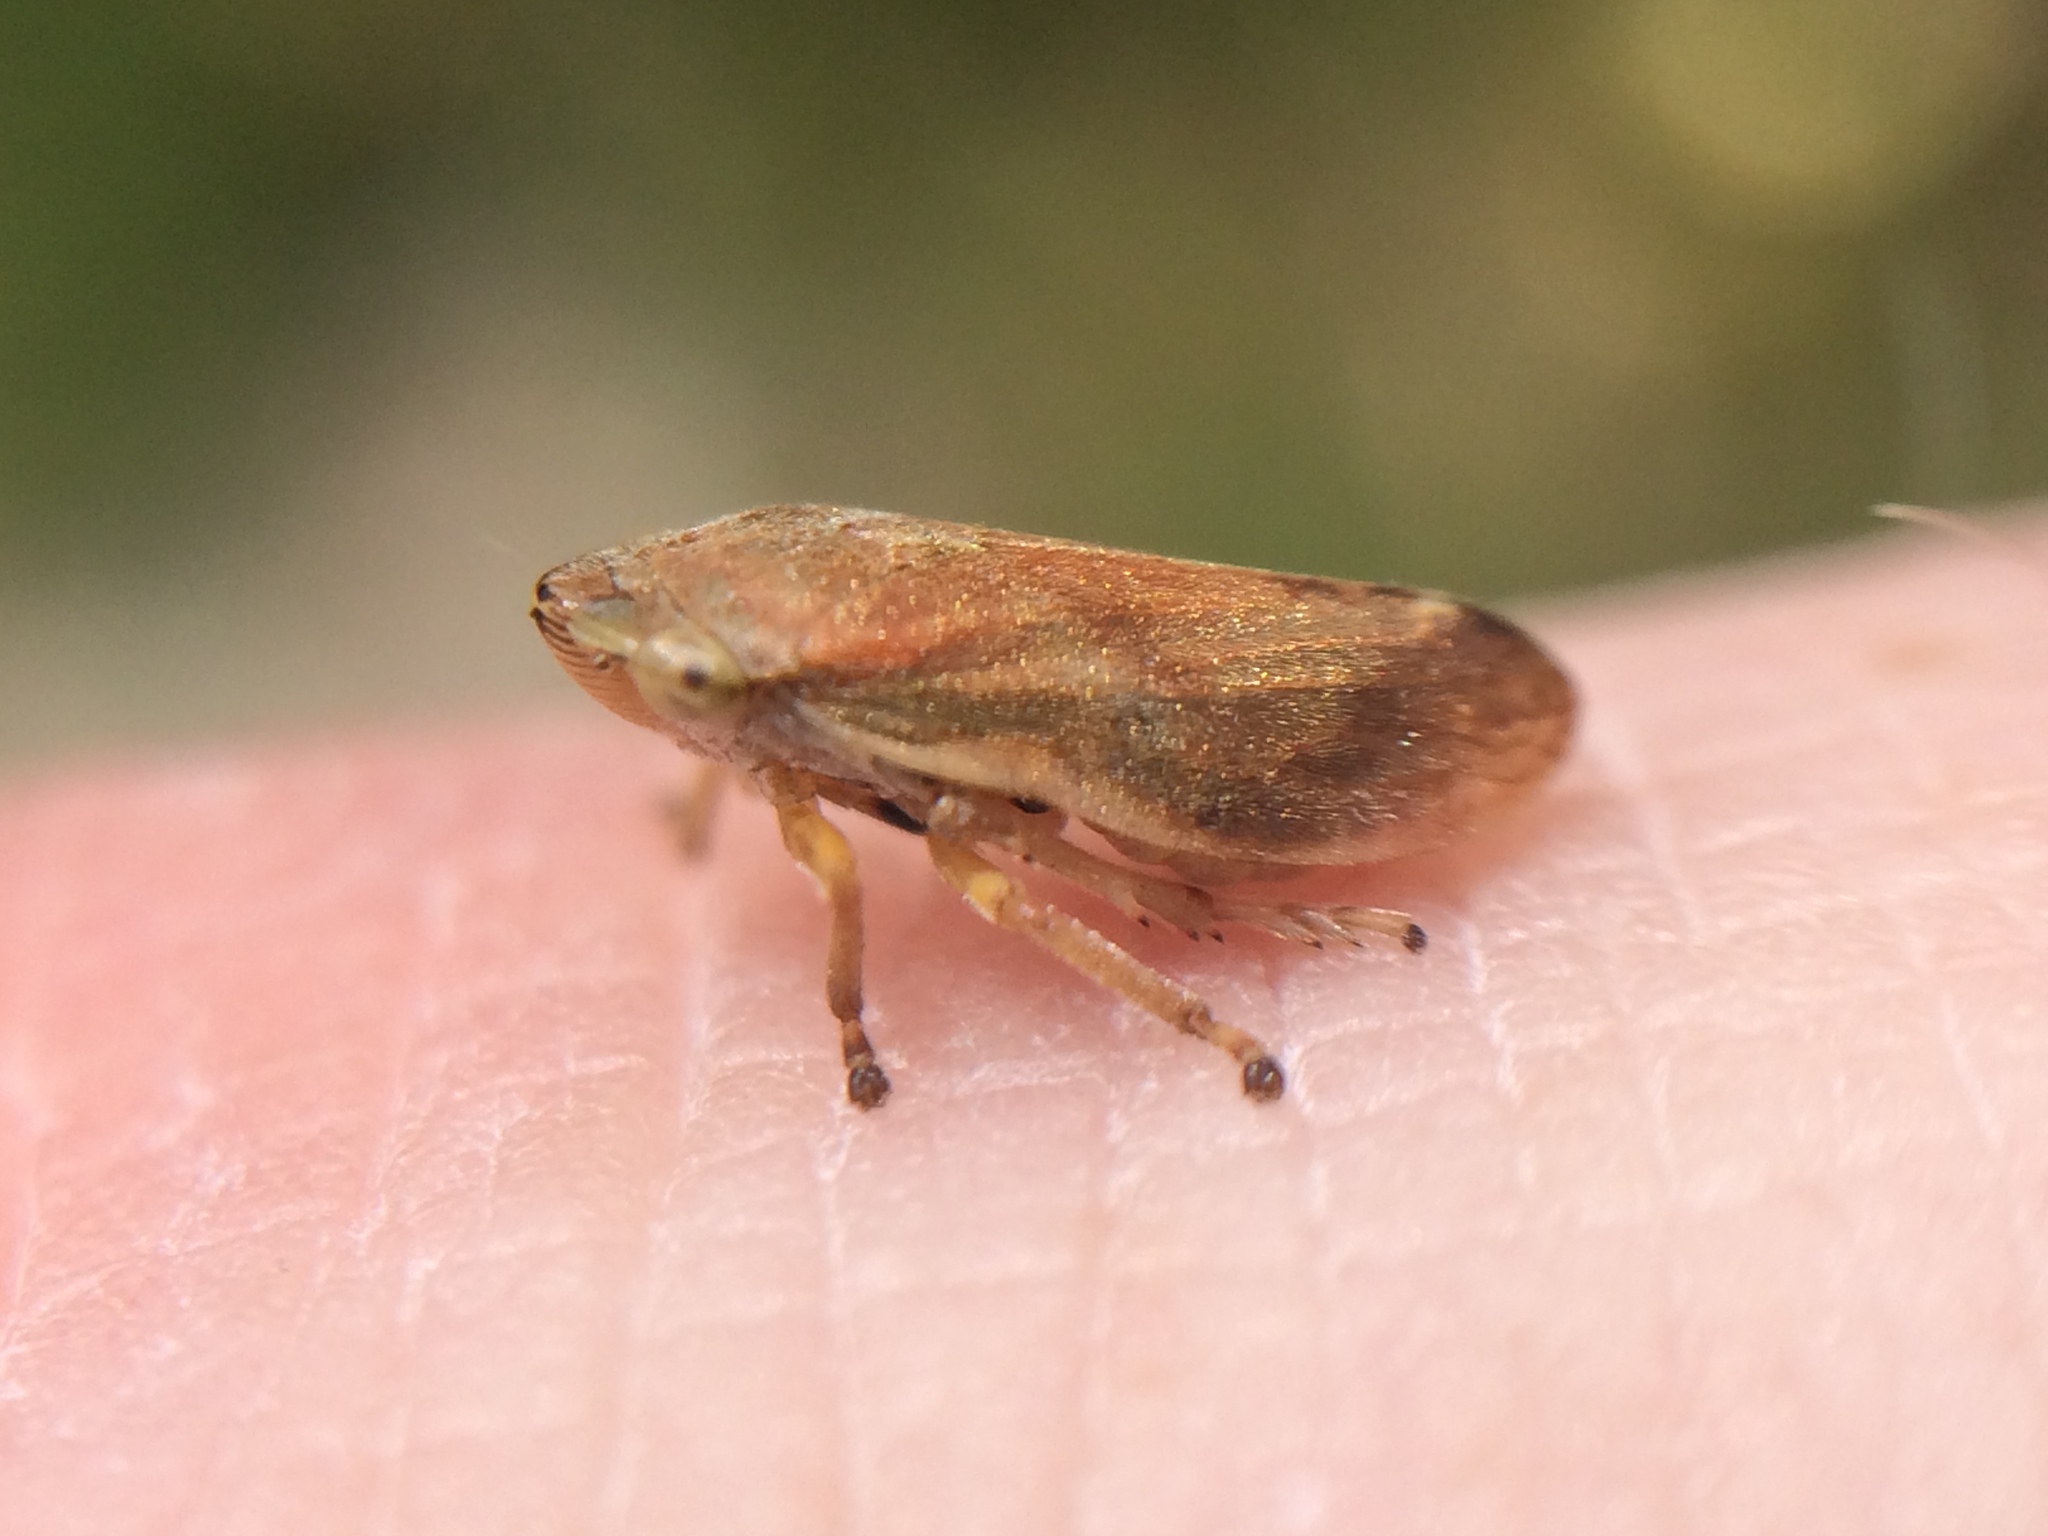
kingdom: Animalia
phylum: Arthropoda
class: Insecta
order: Hemiptera
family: Aphrophoridae
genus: Philaenus
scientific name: Philaenus spumarius
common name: Meadow spittlebug
